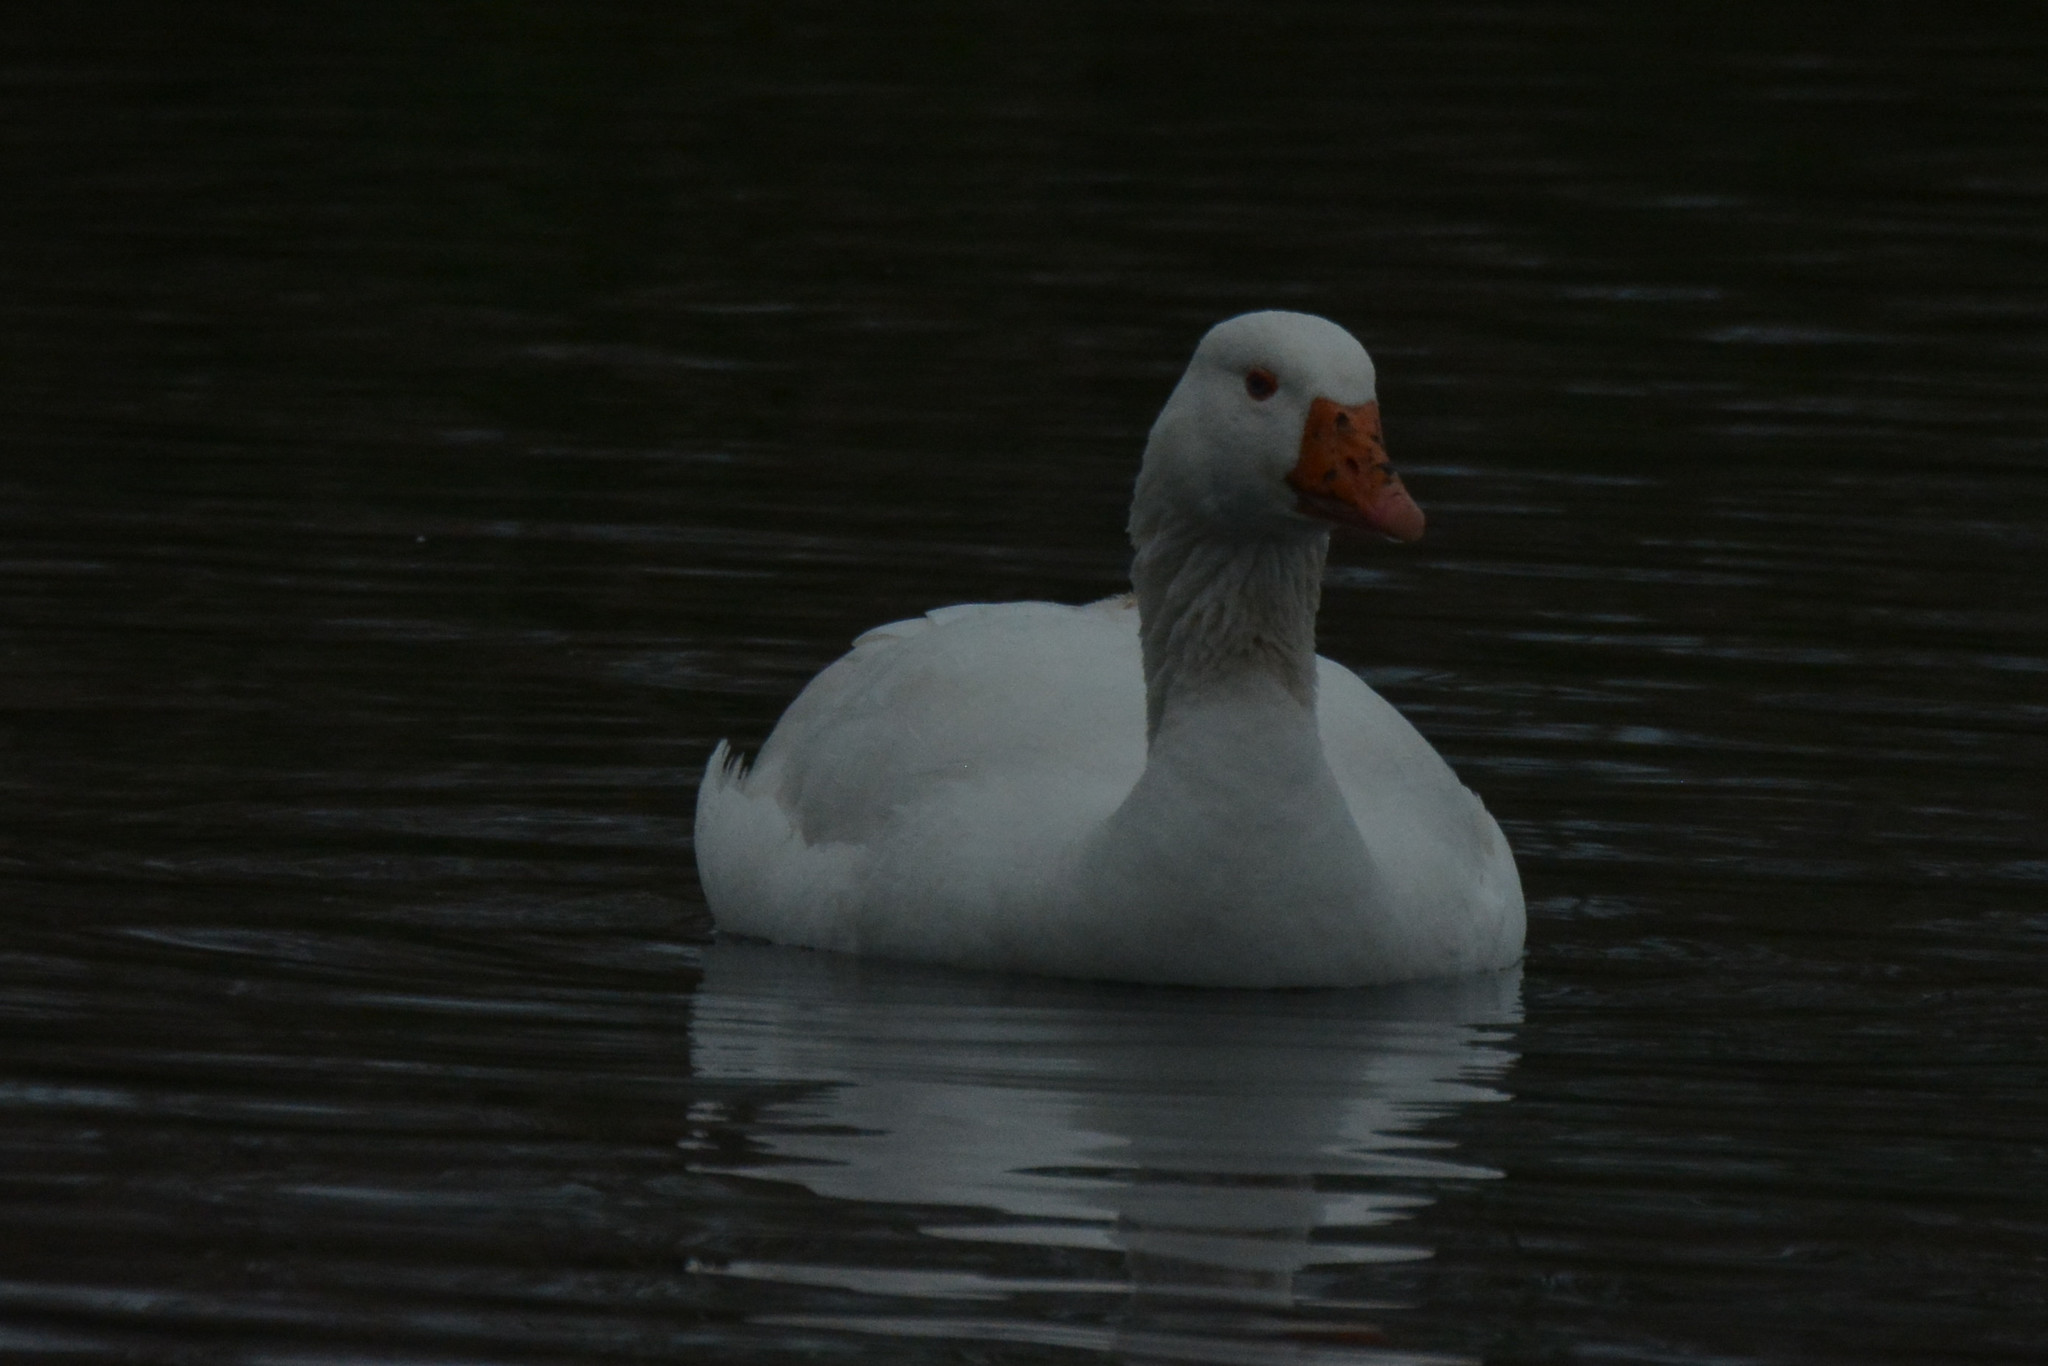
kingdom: Animalia
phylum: Chordata
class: Aves
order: Anseriformes
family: Anatidae
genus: Anser
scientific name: Anser anser
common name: Greylag goose
